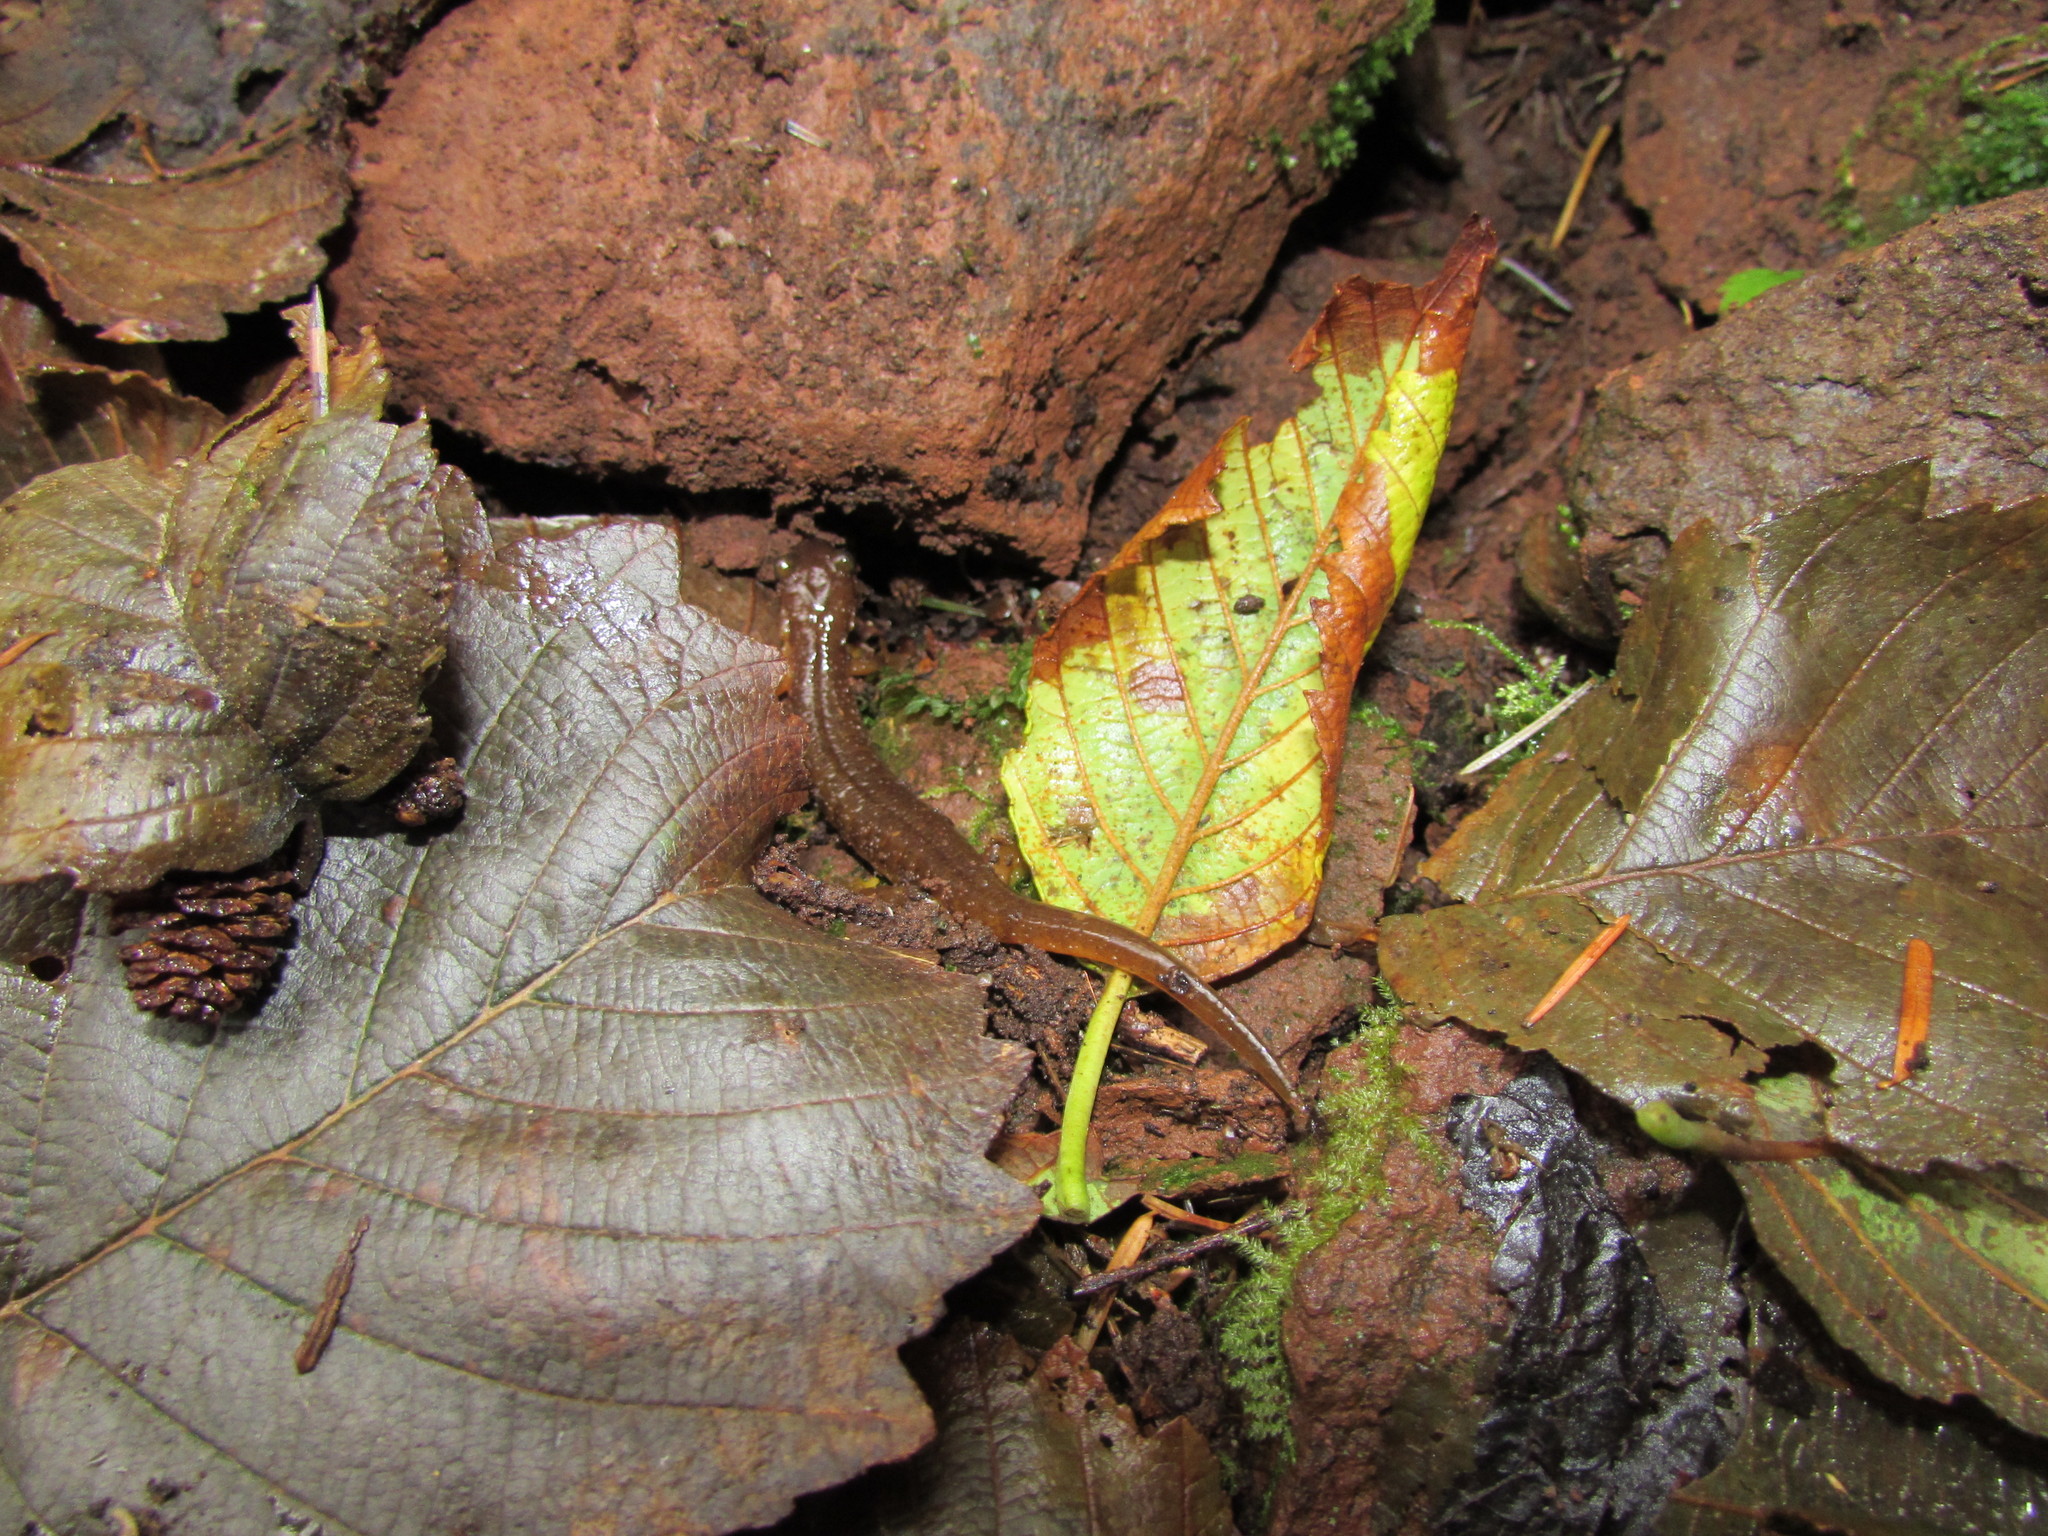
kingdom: Animalia
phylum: Chordata
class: Amphibia
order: Caudata
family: Rhyacotritonidae
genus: Rhyacotriton
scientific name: Rhyacotriton variegatus
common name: Southern torrent salamander
